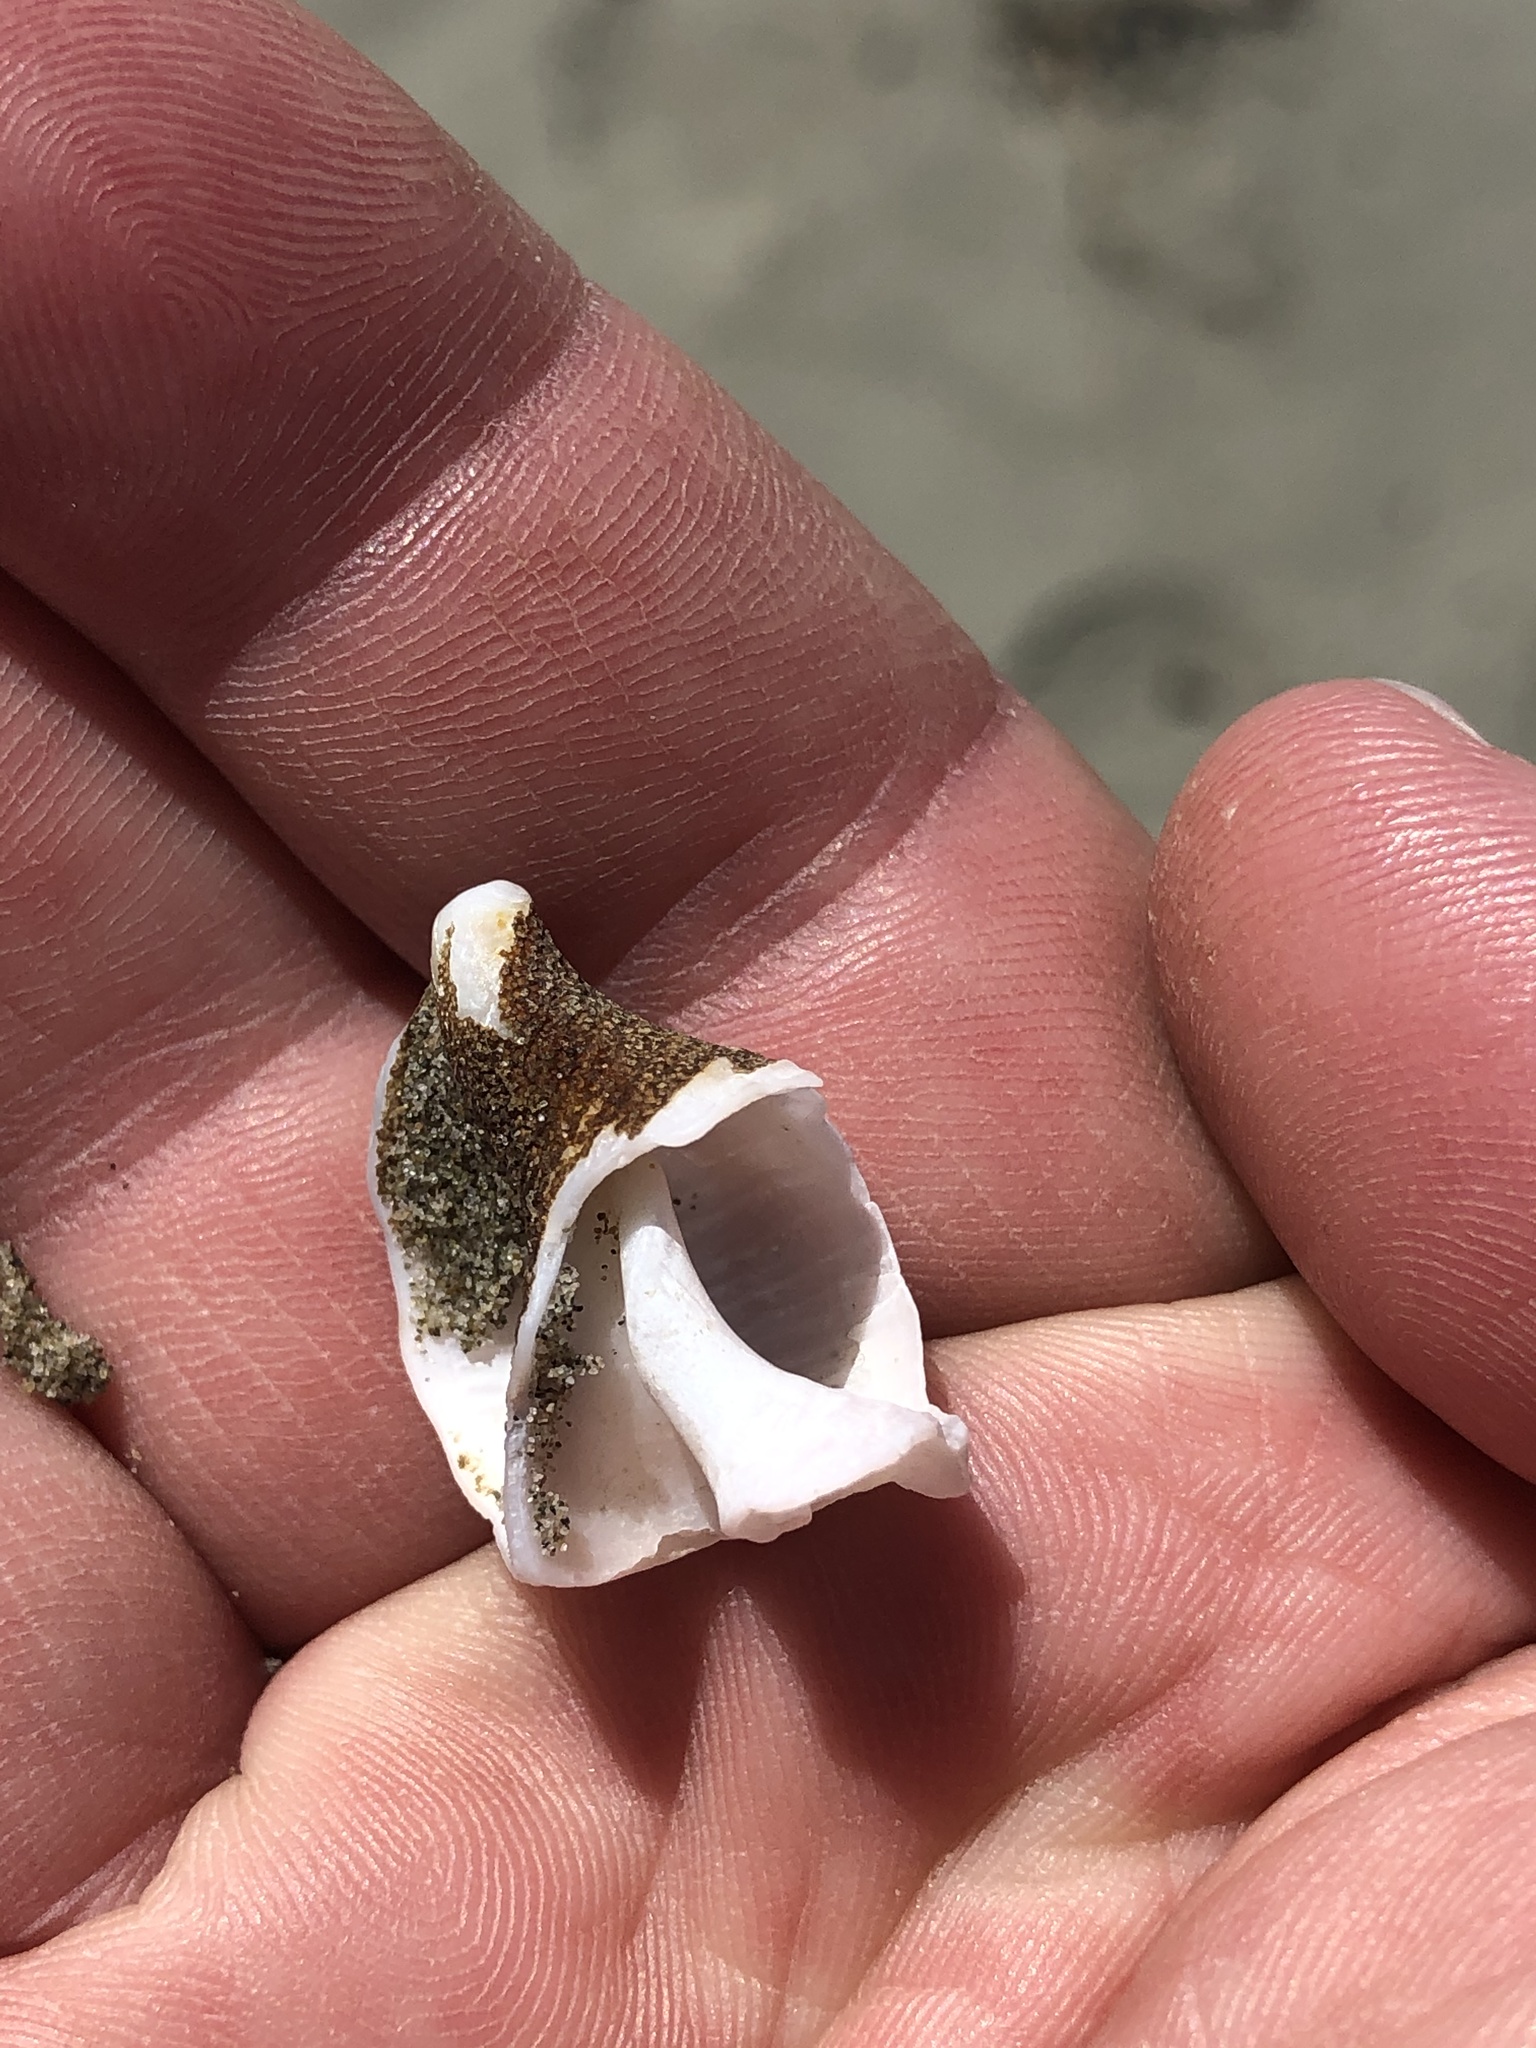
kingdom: Animalia
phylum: Mollusca
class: Gastropoda
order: Neogastropoda
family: Prosiphonidae
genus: Austrofusus
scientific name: Austrofusus glans
